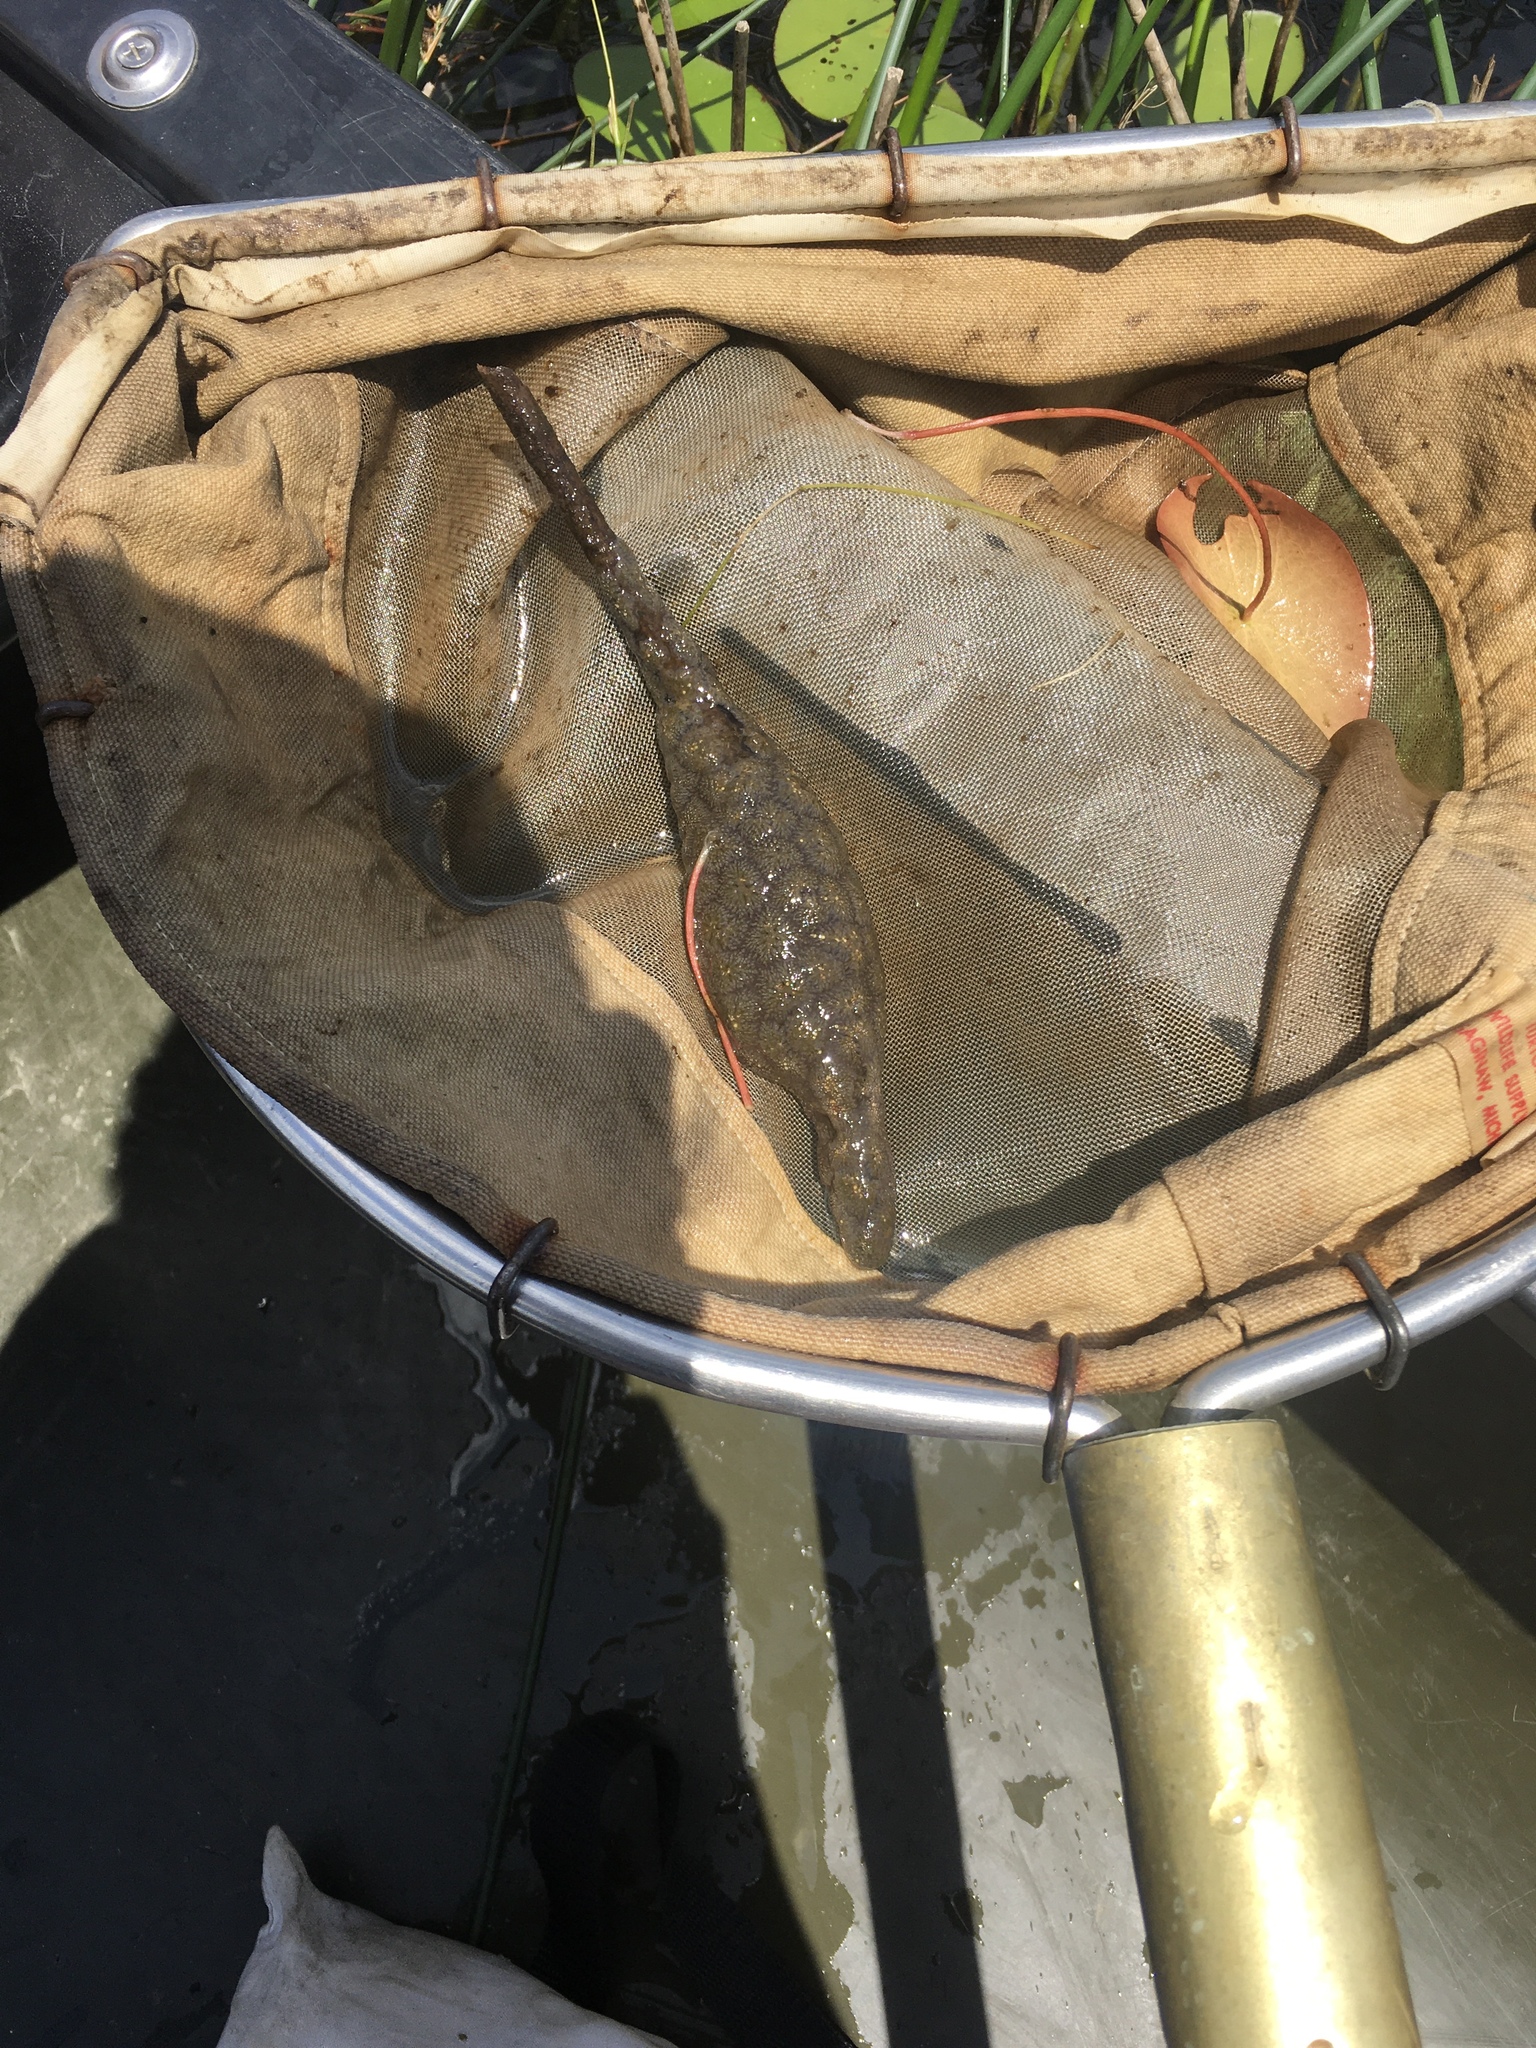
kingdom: Animalia
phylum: Bryozoa
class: Phylactolaemata
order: Plumatellida
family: Pectinatellidae
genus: Pectinatella
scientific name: Pectinatella magnifica
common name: Magnificent bryozoan
